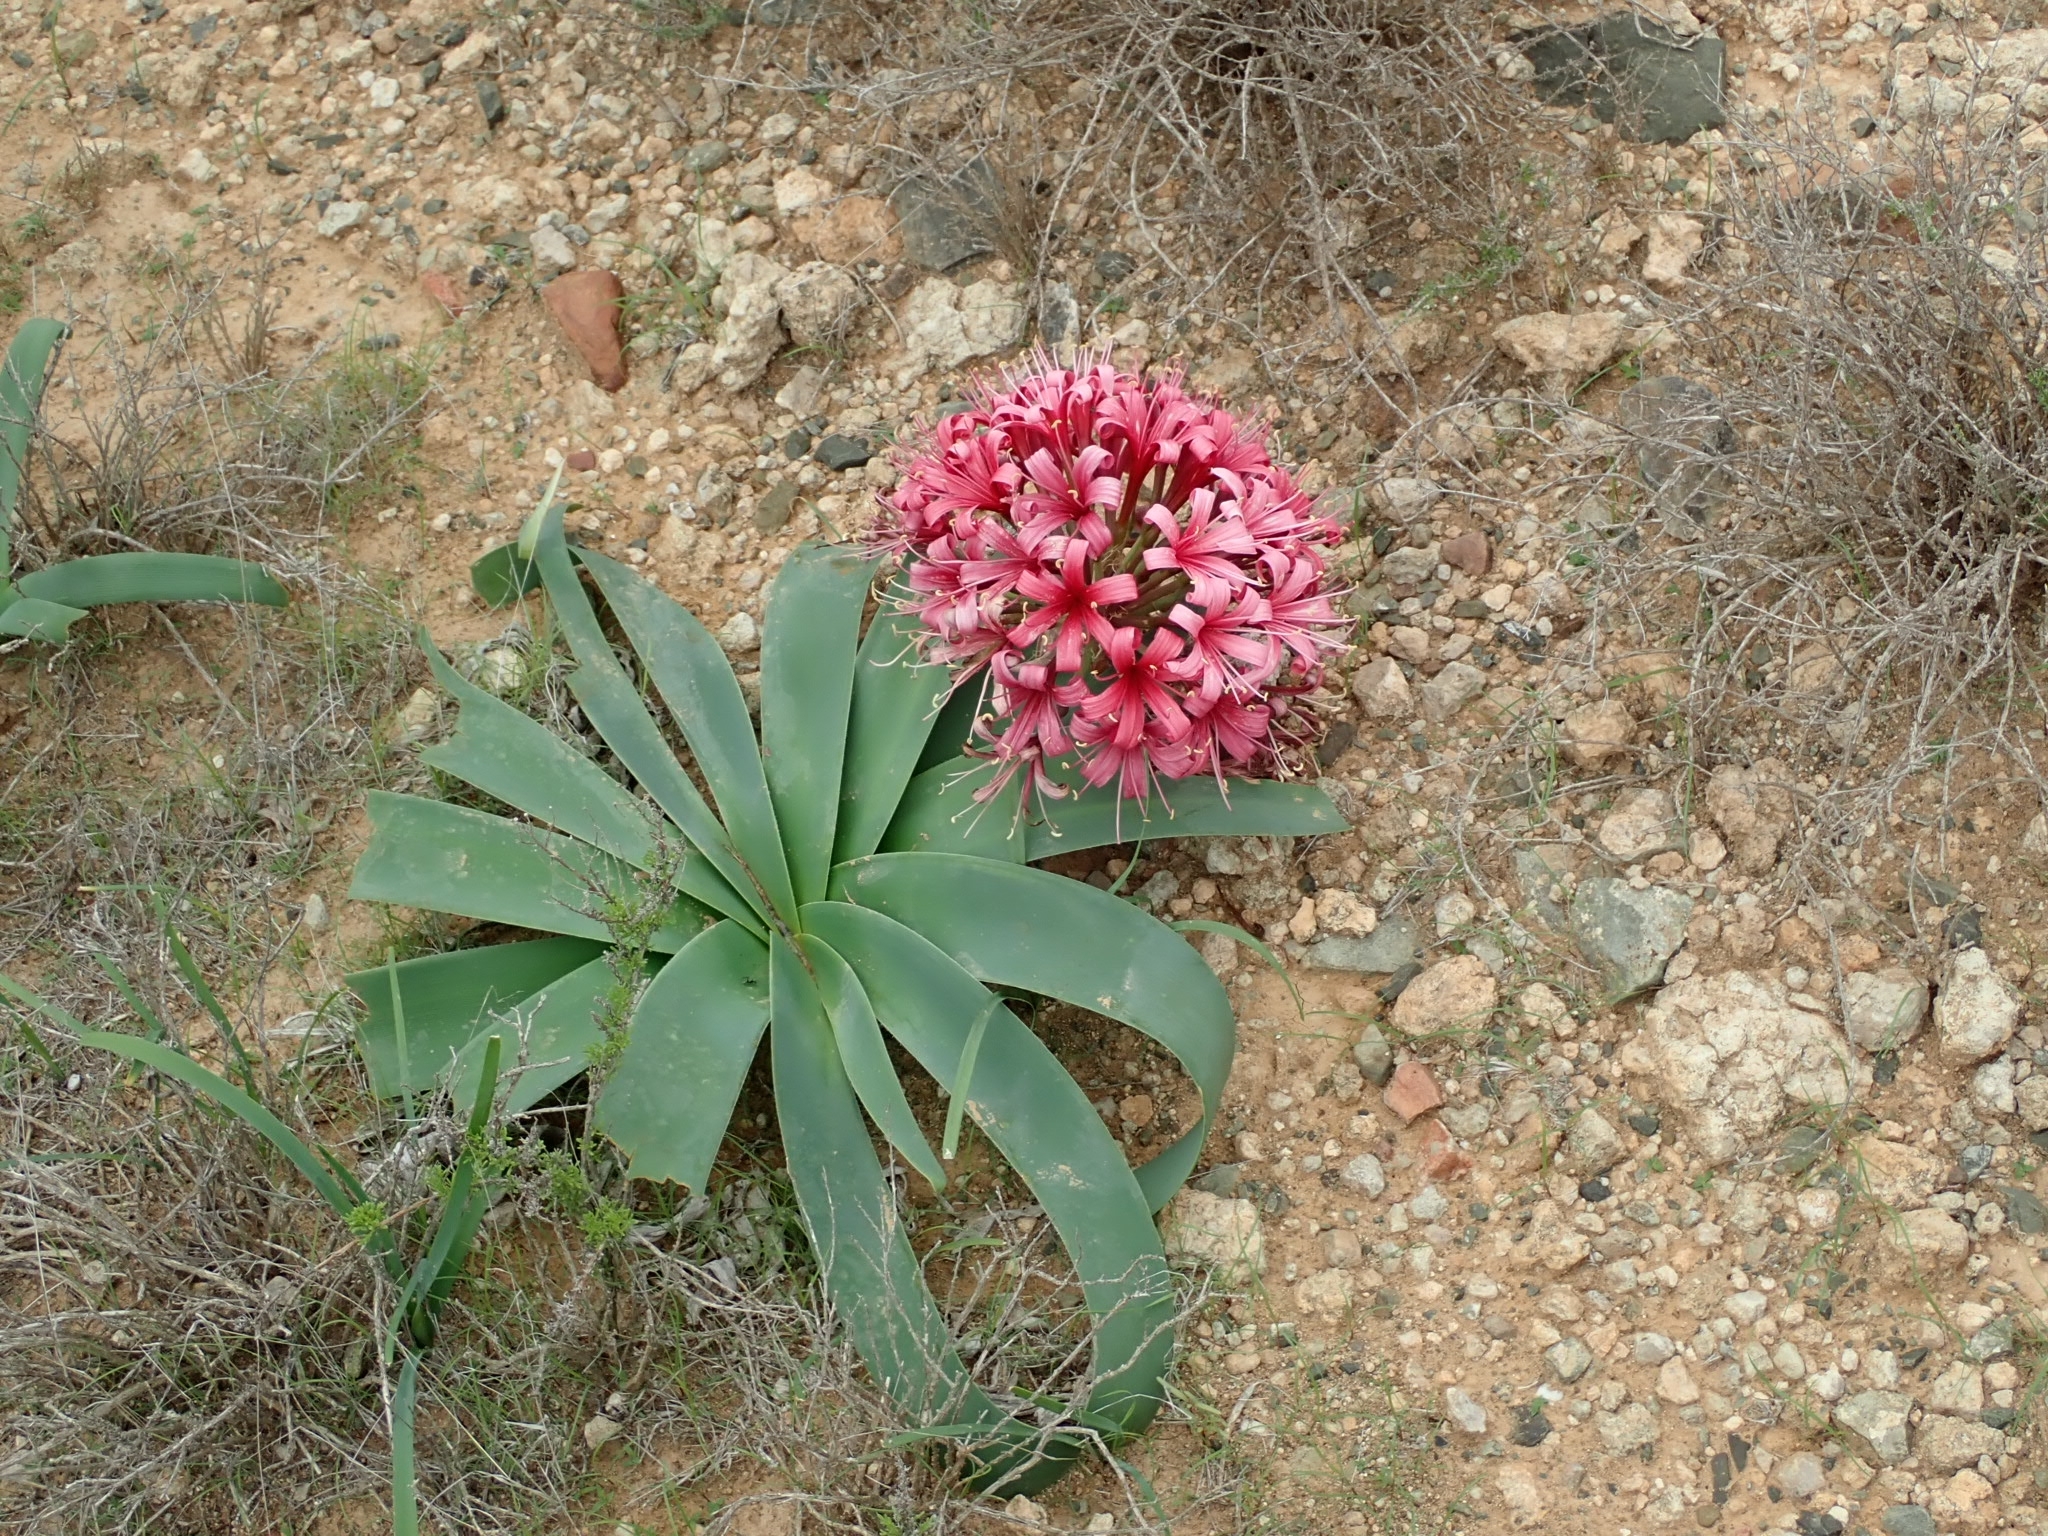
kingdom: Plantae
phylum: Tracheophyta
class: Liliopsida
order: Asparagales
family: Amaryllidaceae
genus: Ammocharis
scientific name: Ammocharis coranica
